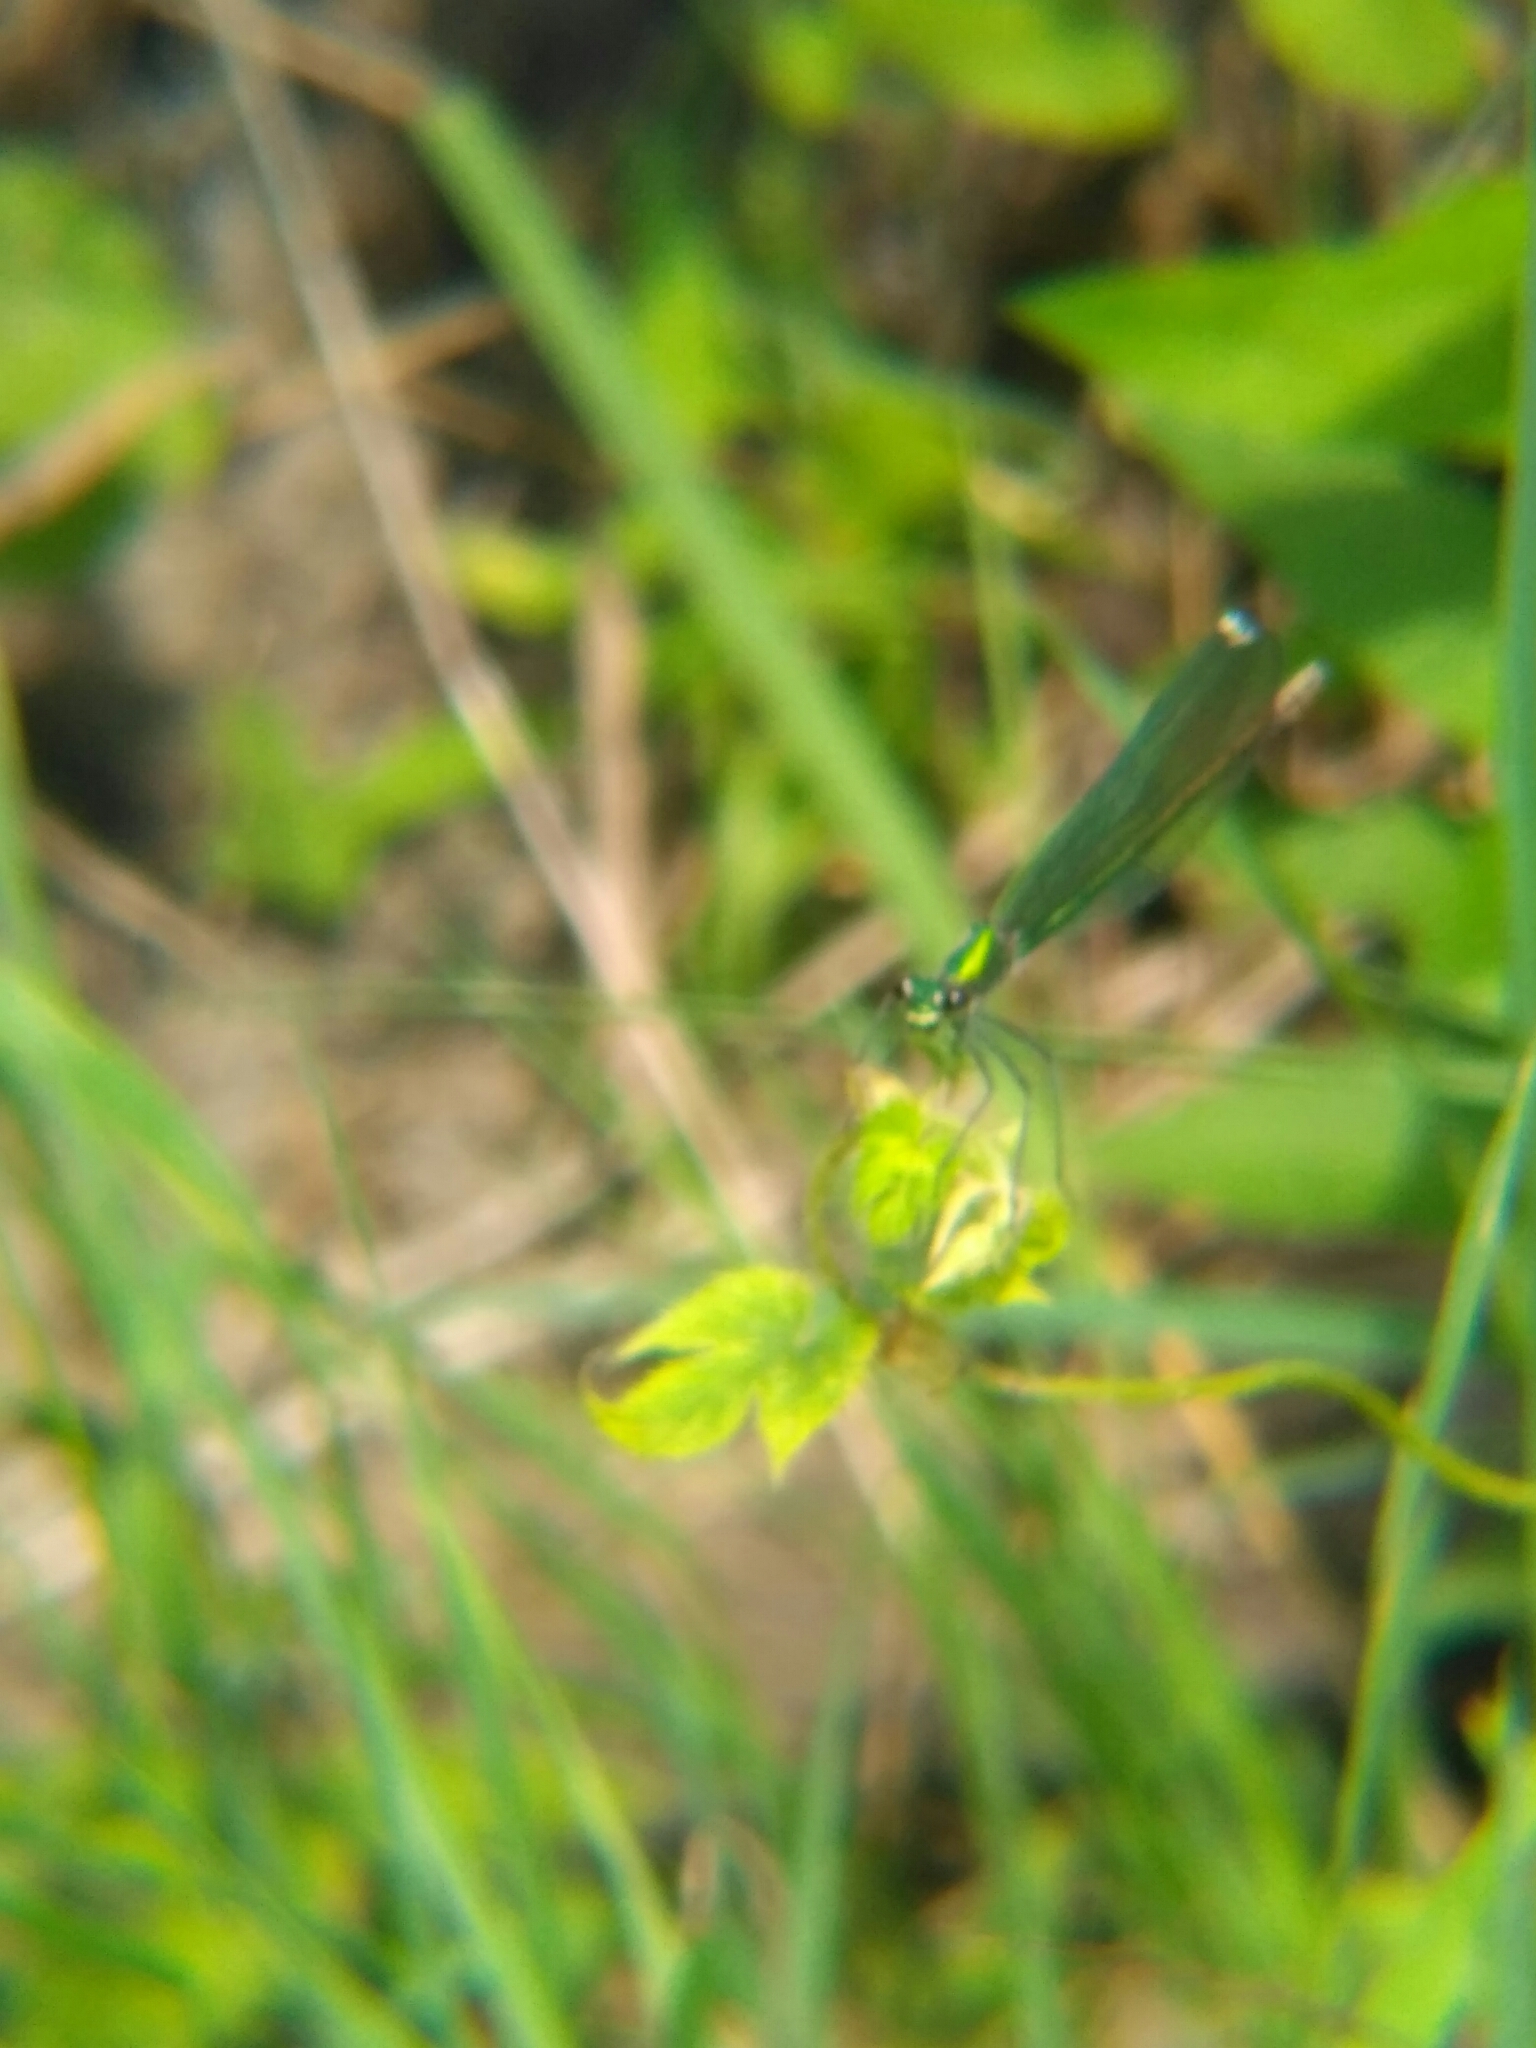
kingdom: Animalia
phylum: Arthropoda
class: Insecta
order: Odonata
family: Calopterygidae
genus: Calopteryx
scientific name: Calopteryx splendens
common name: Banded demoiselle
